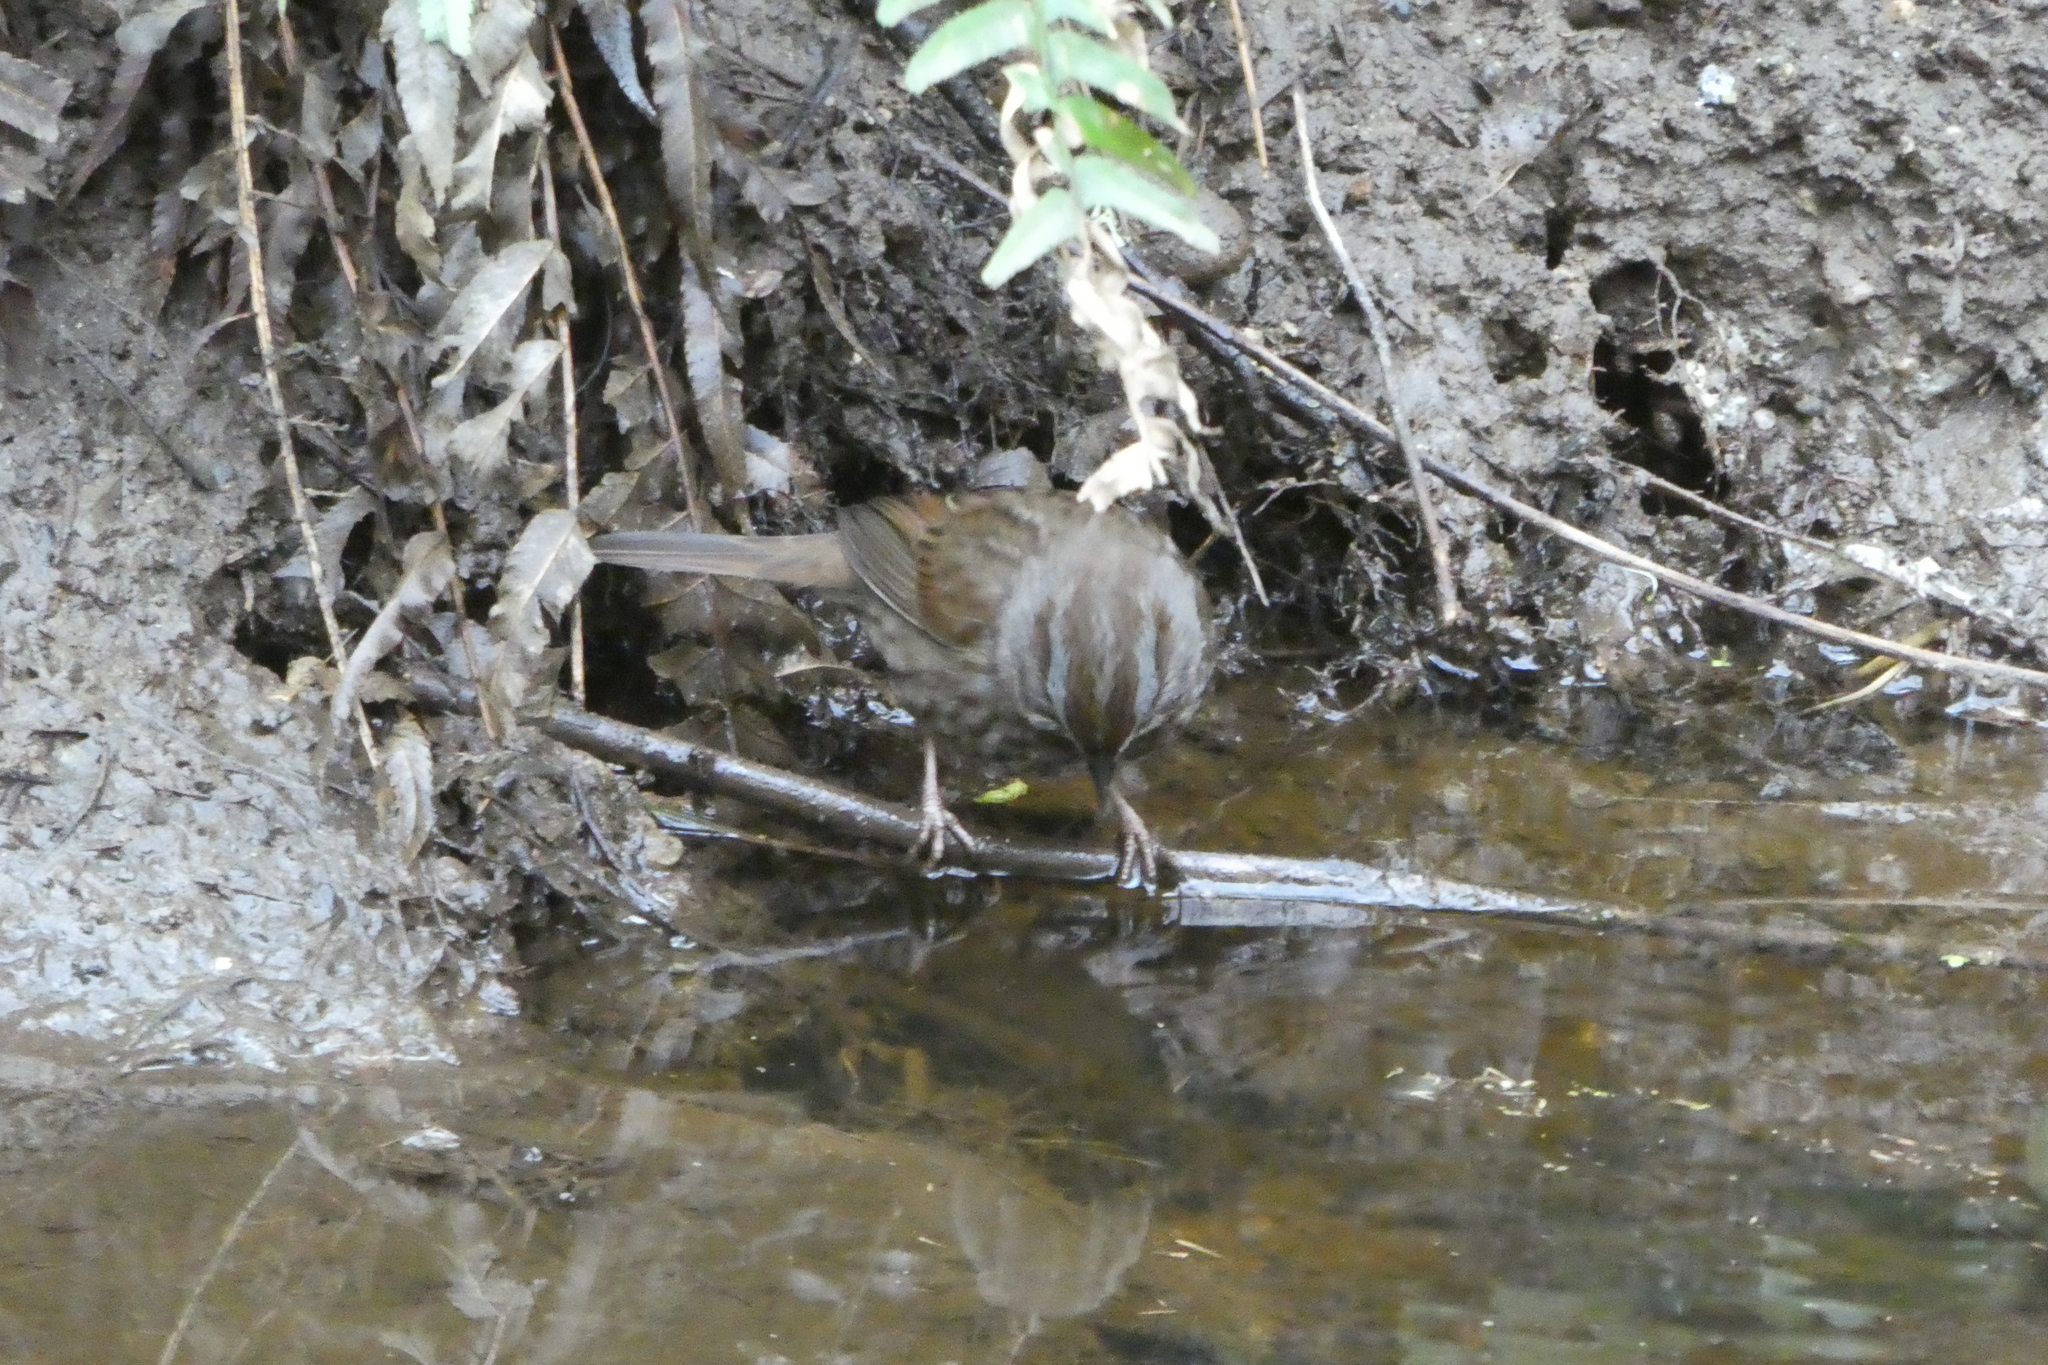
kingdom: Animalia
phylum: Chordata
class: Aves
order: Passeriformes
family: Passerellidae
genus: Melospiza
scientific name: Melospiza melodia
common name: Song sparrow
